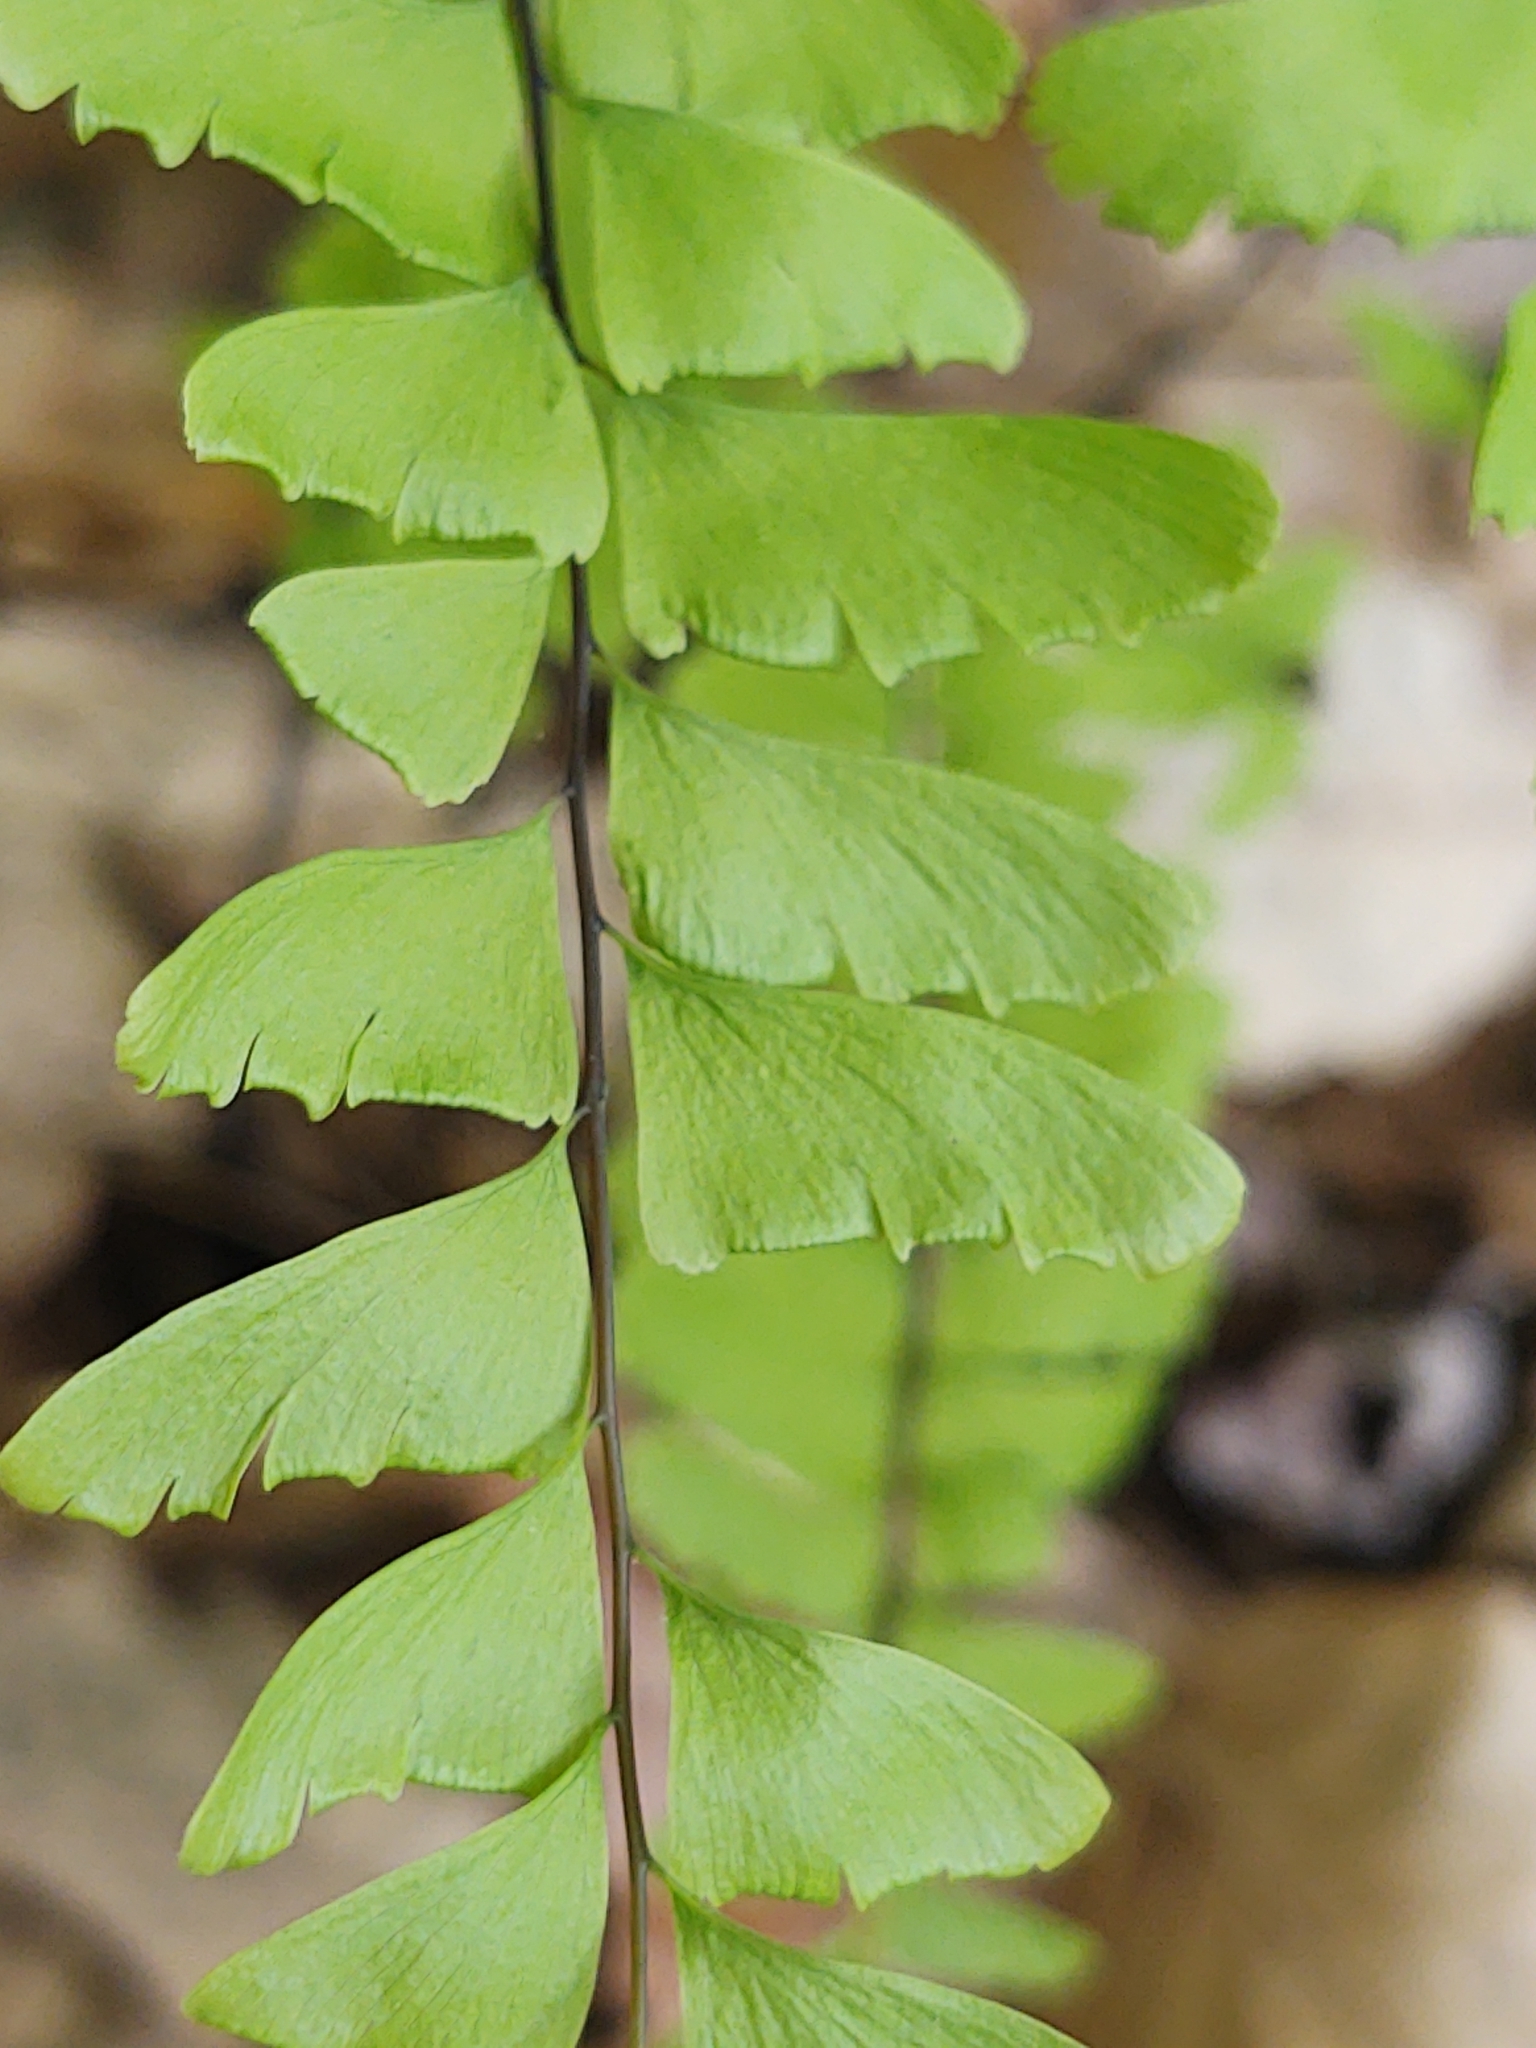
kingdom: Plantae
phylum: Tracheophyta
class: Polypodiopsida
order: Polypodiales
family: Pteridaceae
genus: Adiantum
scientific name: Adiantum pedatum
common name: Five-finger fern
